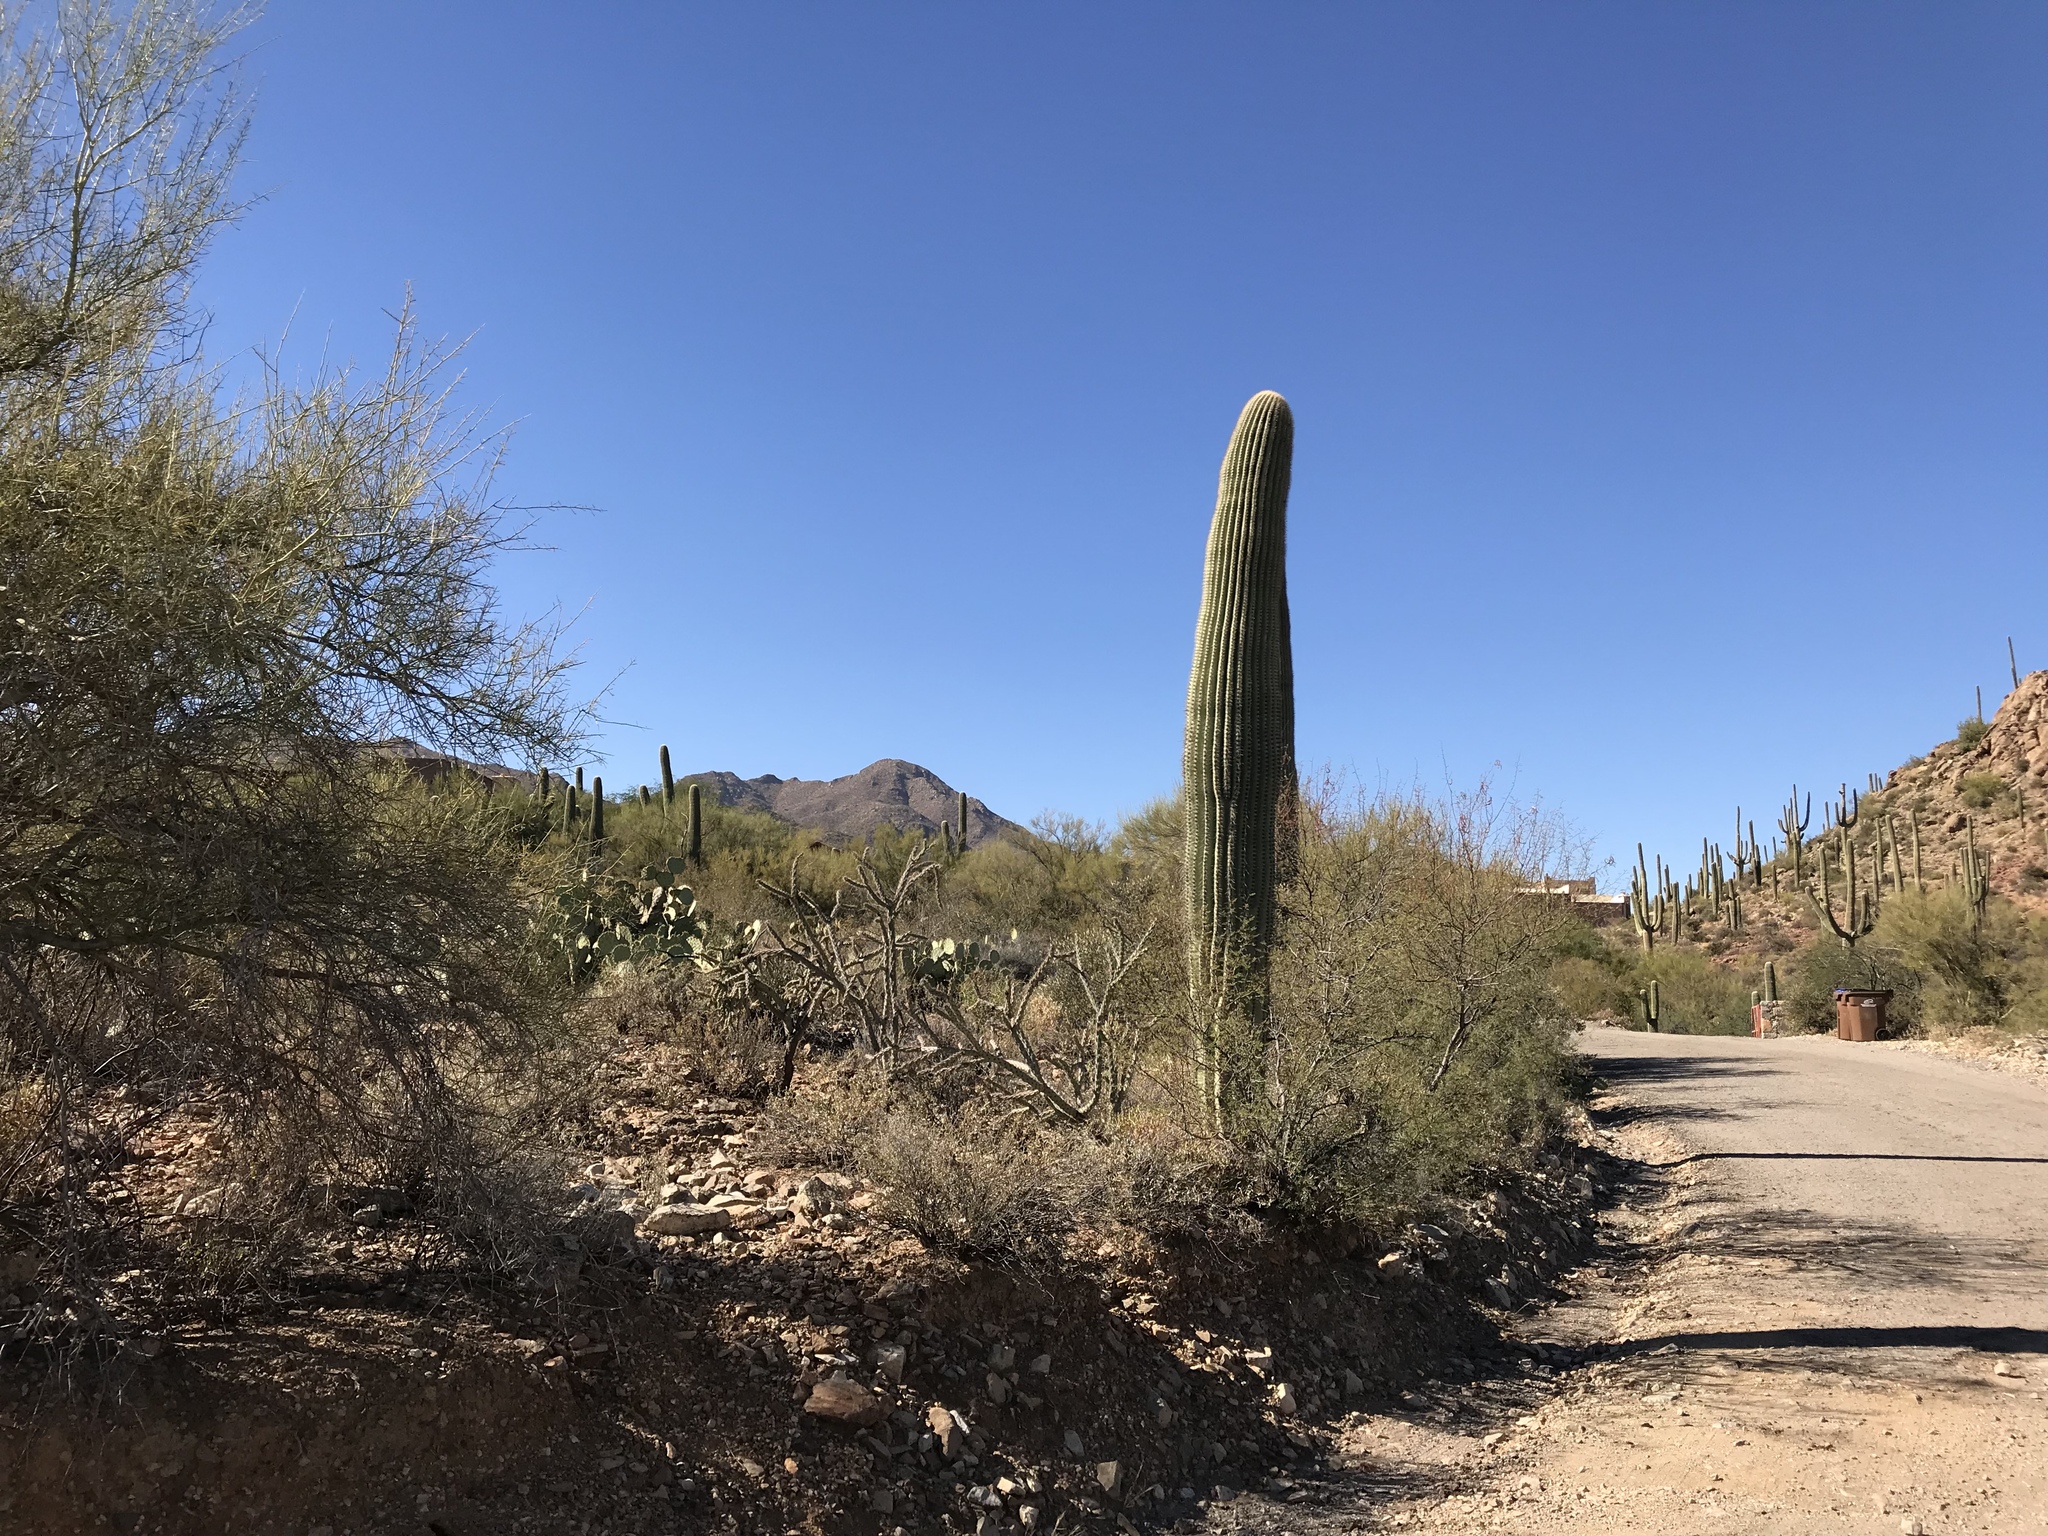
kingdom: Plantae
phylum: Tracheophyta
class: Magnoliopsida
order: Caryophyllales
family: Cactaceae
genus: Carnegiea
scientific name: Carnegiea gigantea
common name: Saguaro
